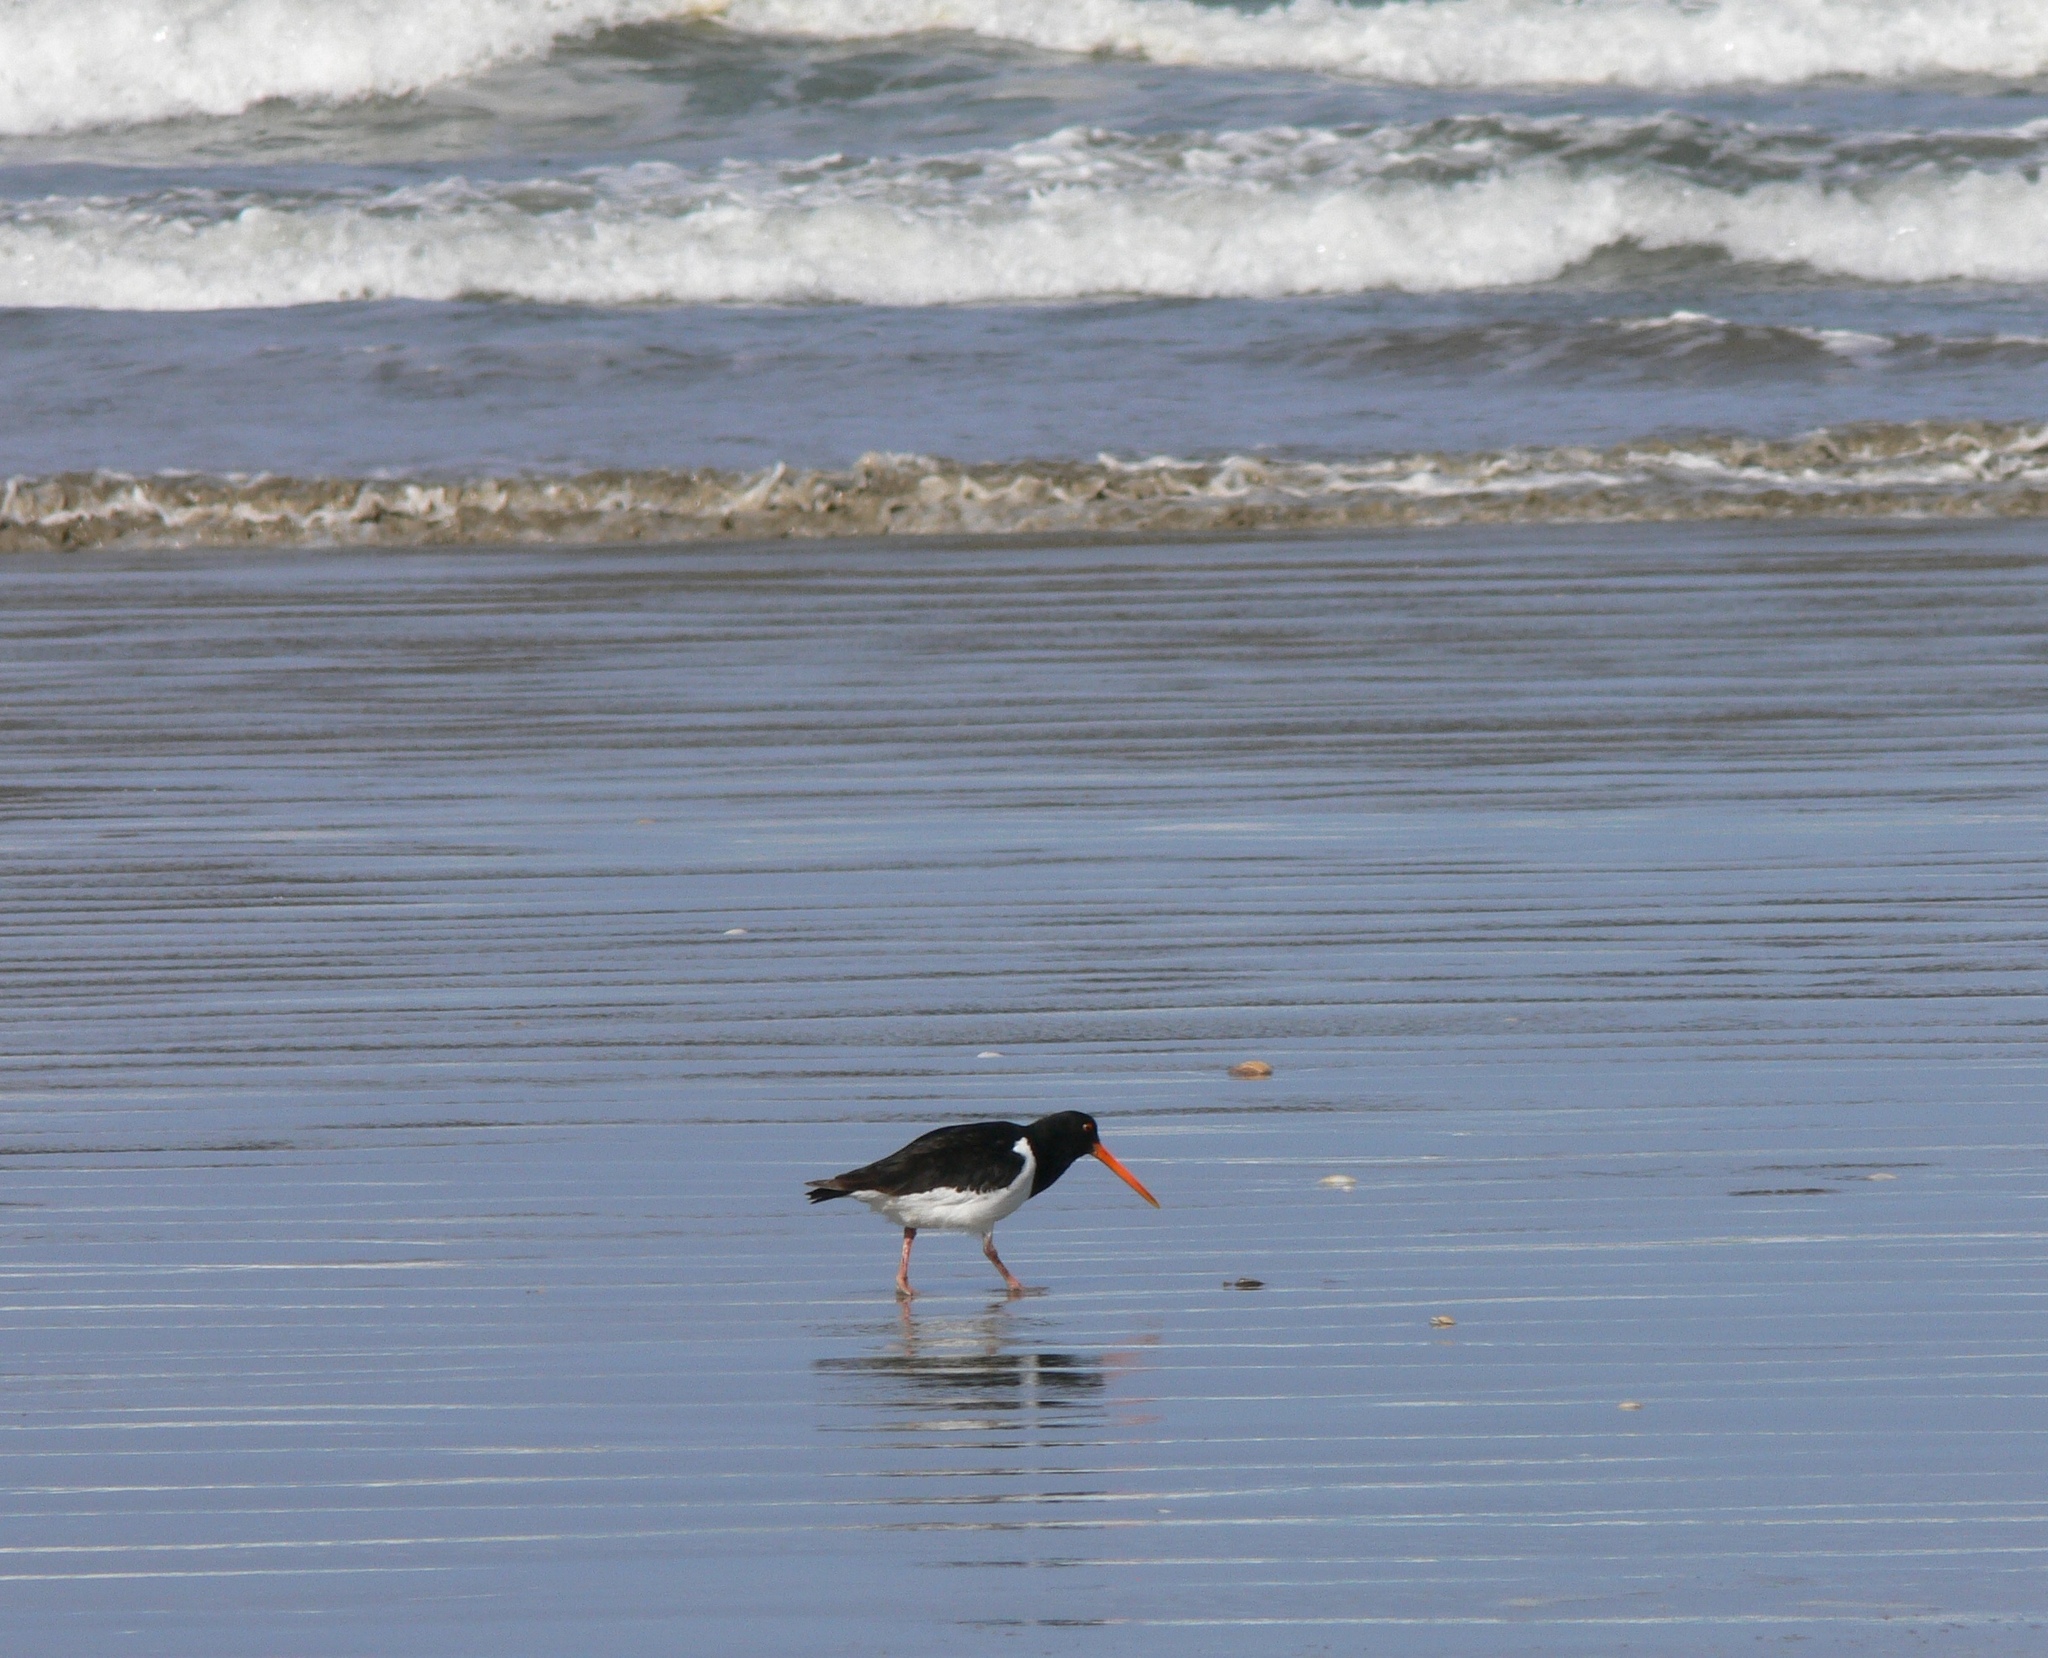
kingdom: Animalia
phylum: Chordata
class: Aves
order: Charadriiformes
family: Haematopodidae
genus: Haematopus
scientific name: Haematopus finschi
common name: South island oystercatcher
